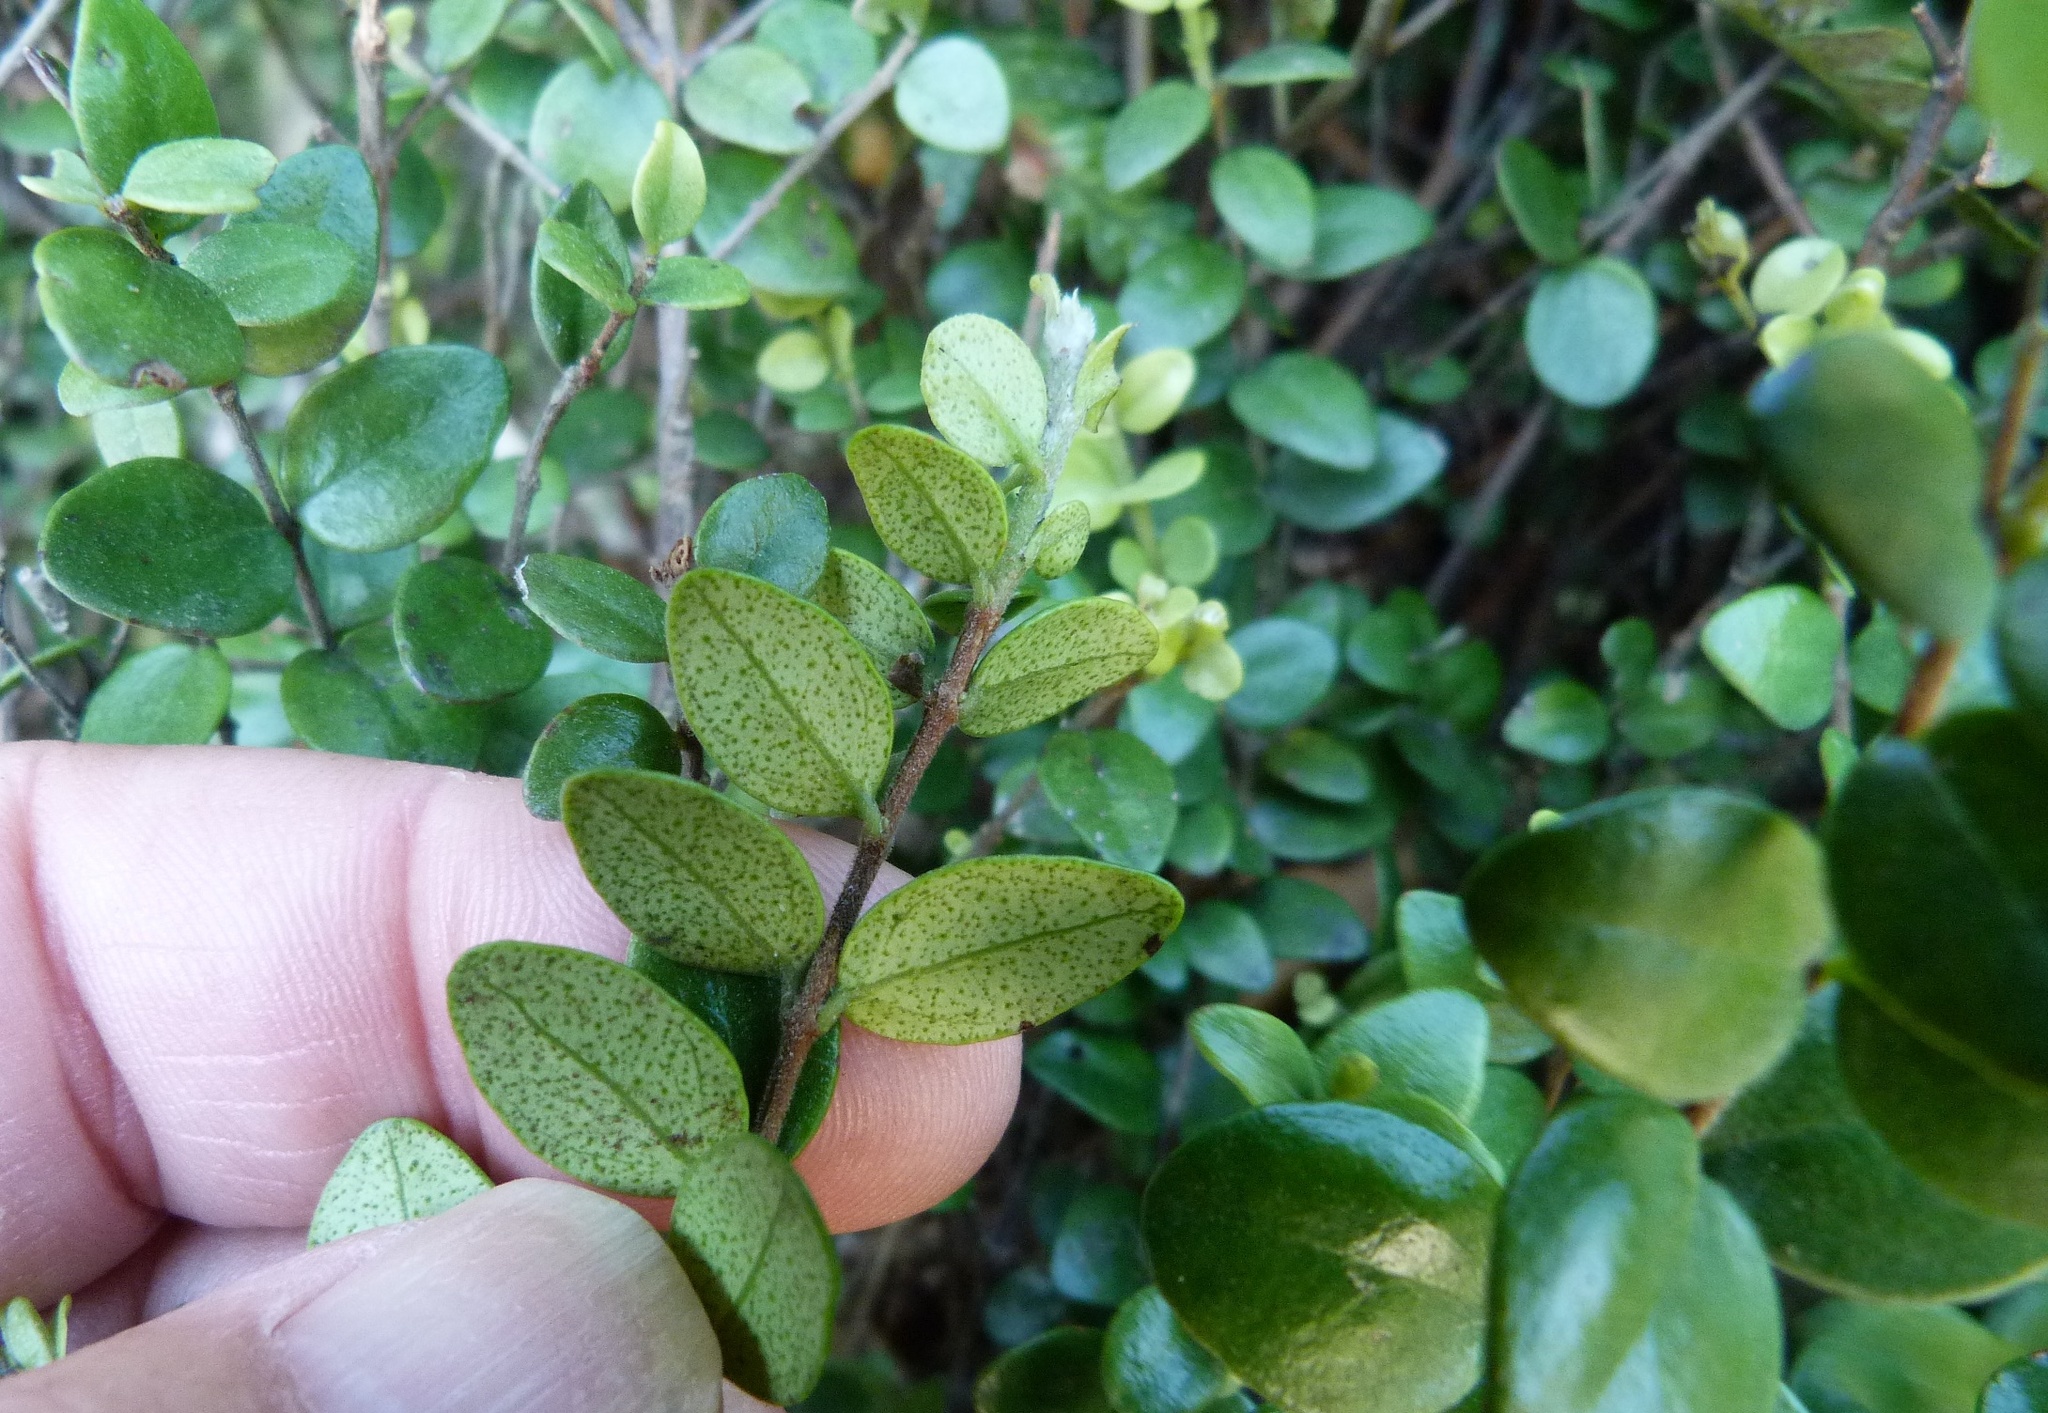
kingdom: Plantae
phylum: Tracheophyta
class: Magnoliopsida
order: Myrtales
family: Myrtaceae
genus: Metrosideros
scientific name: Metrosideros perforata
